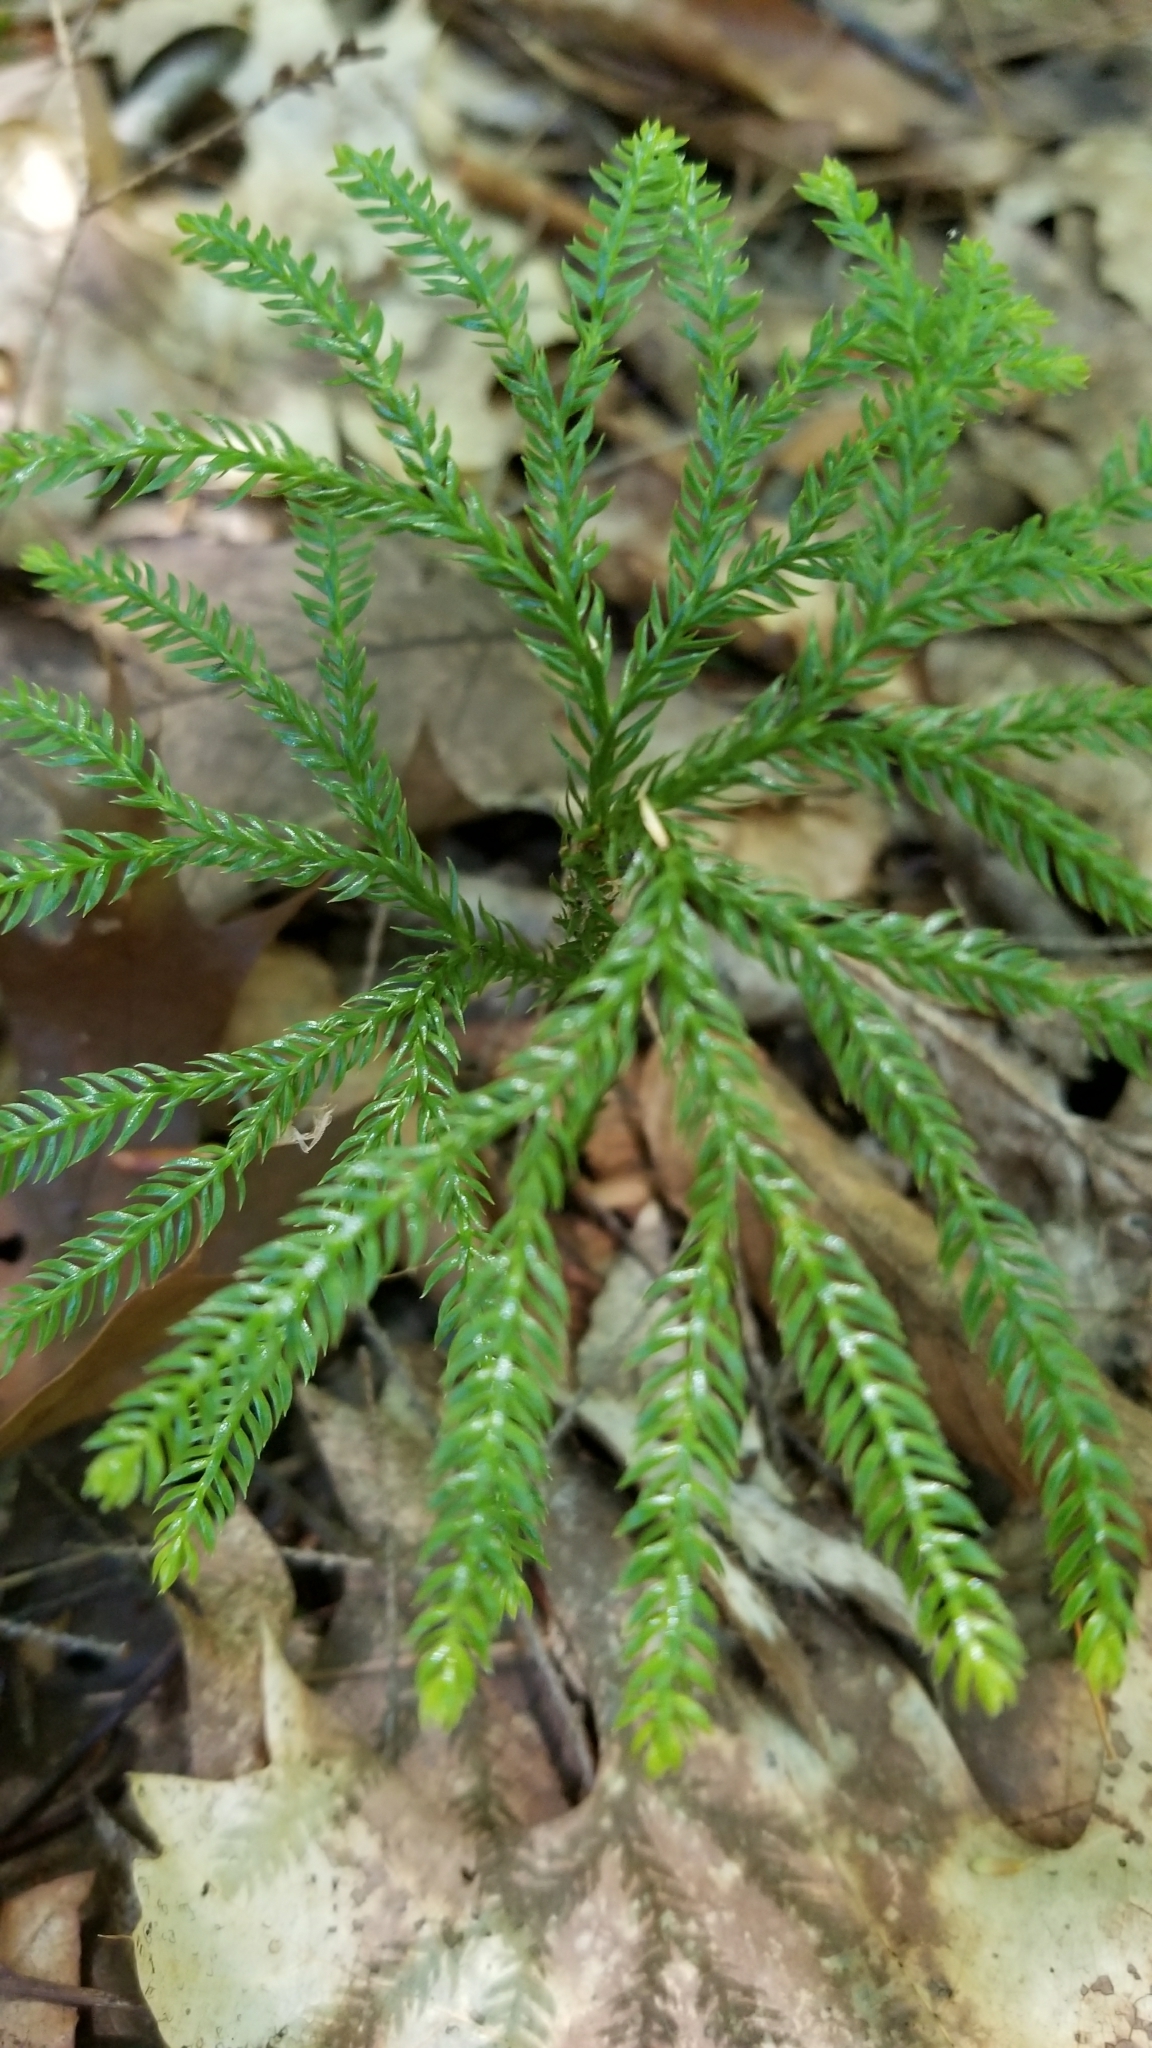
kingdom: Plantae
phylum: Tracheophyta
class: Lycopodiopsida
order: Lycopodiales
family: Lycopodiaceae
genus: Dendrolycopodium
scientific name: Dendrolycopodium obscurum
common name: Common ground-pine
